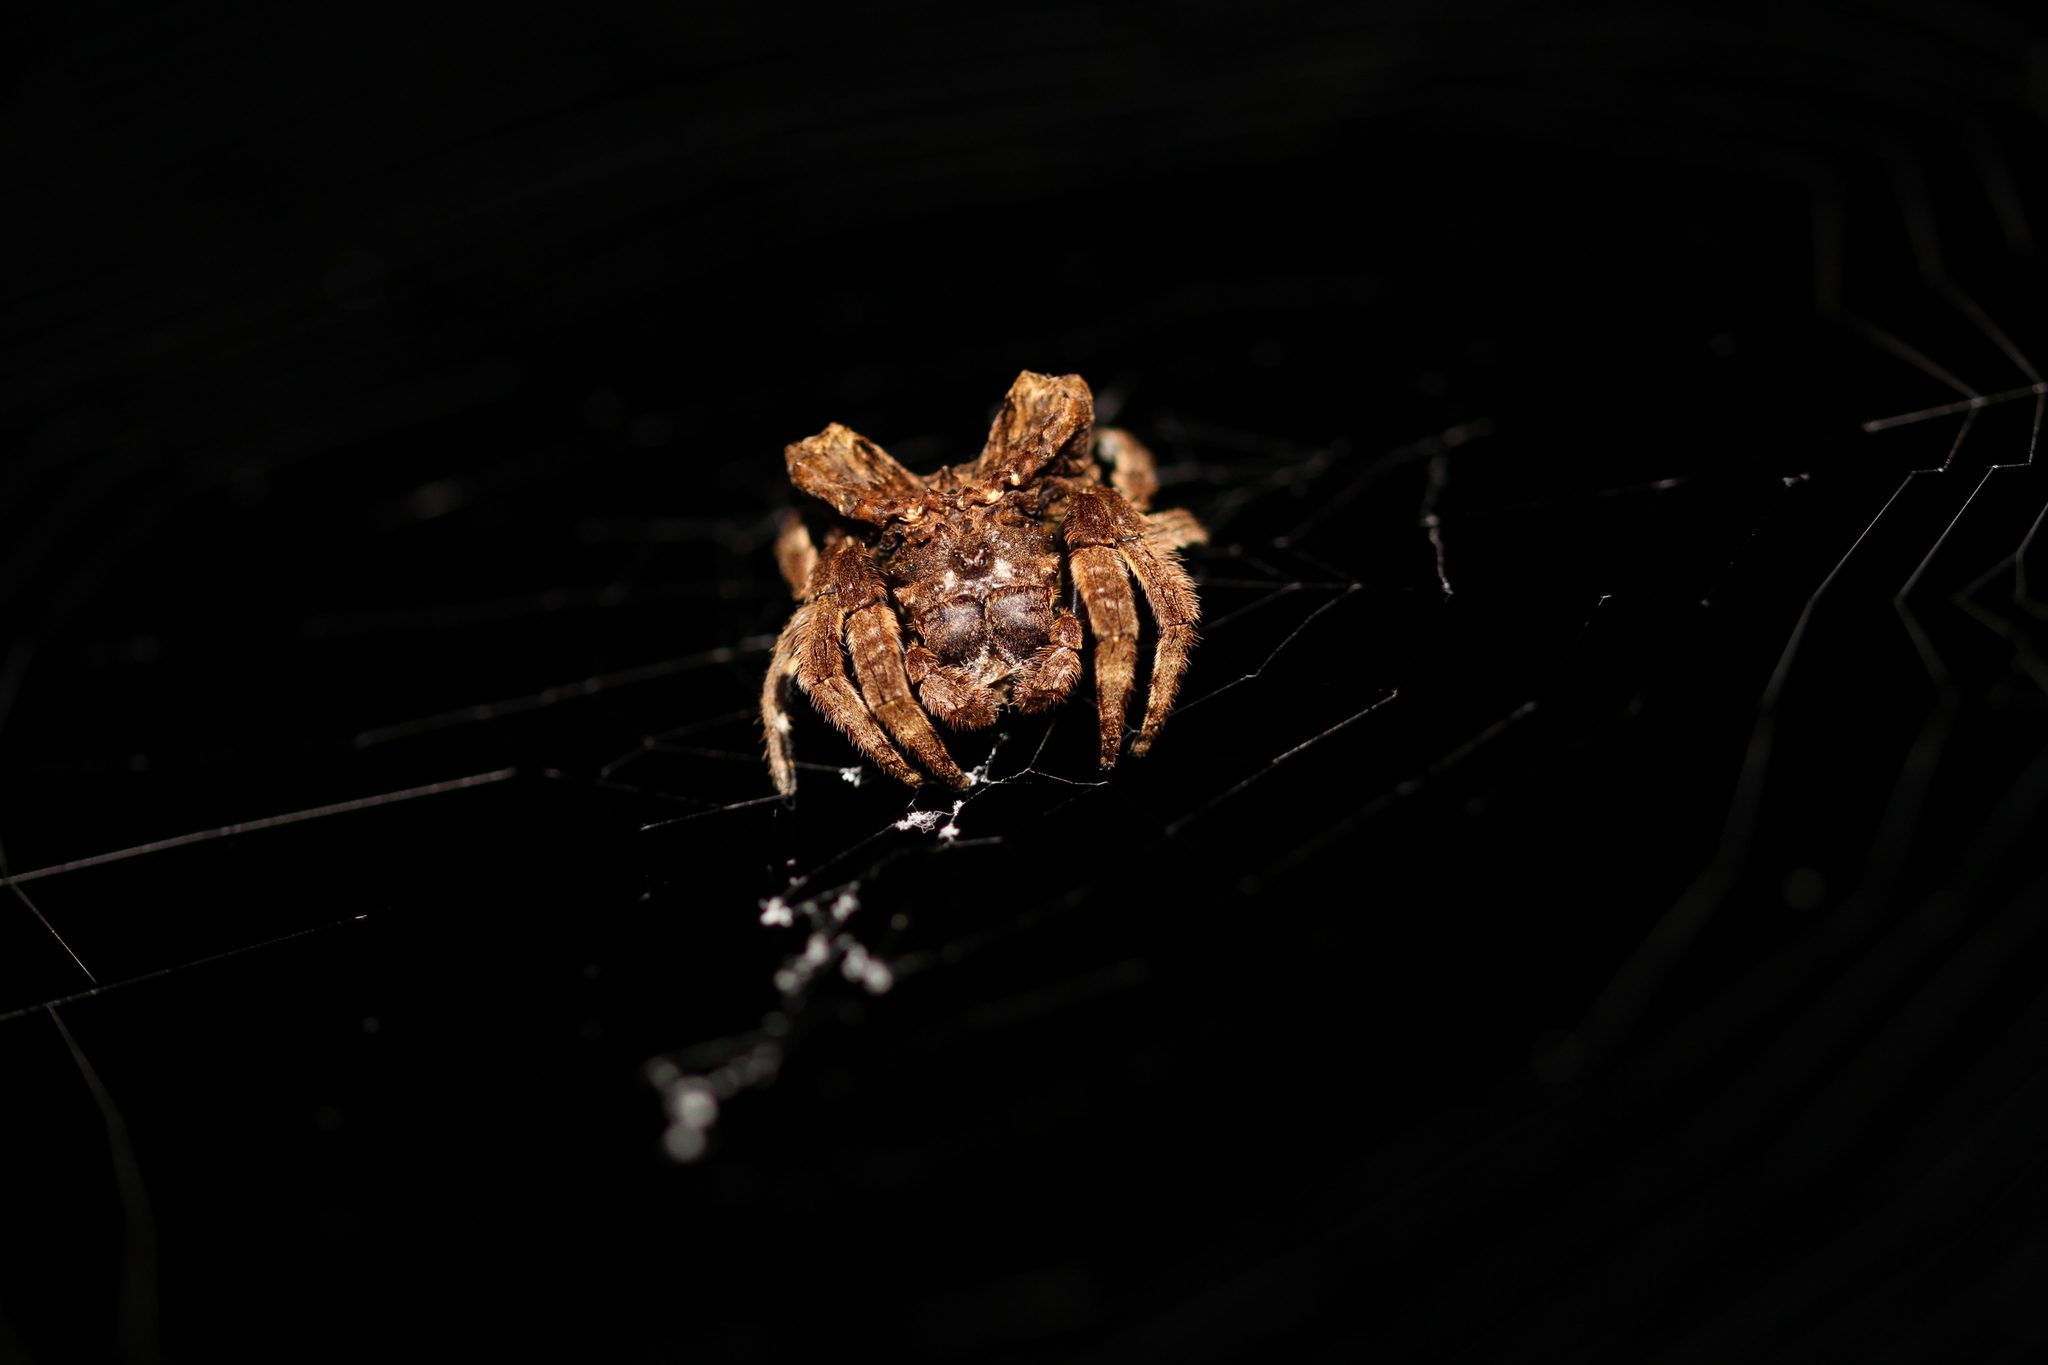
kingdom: Animalia
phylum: Arthropoda
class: Arachnida
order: Araneae
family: Araneidae
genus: Caerostris
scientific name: Caerostris sumatrana
